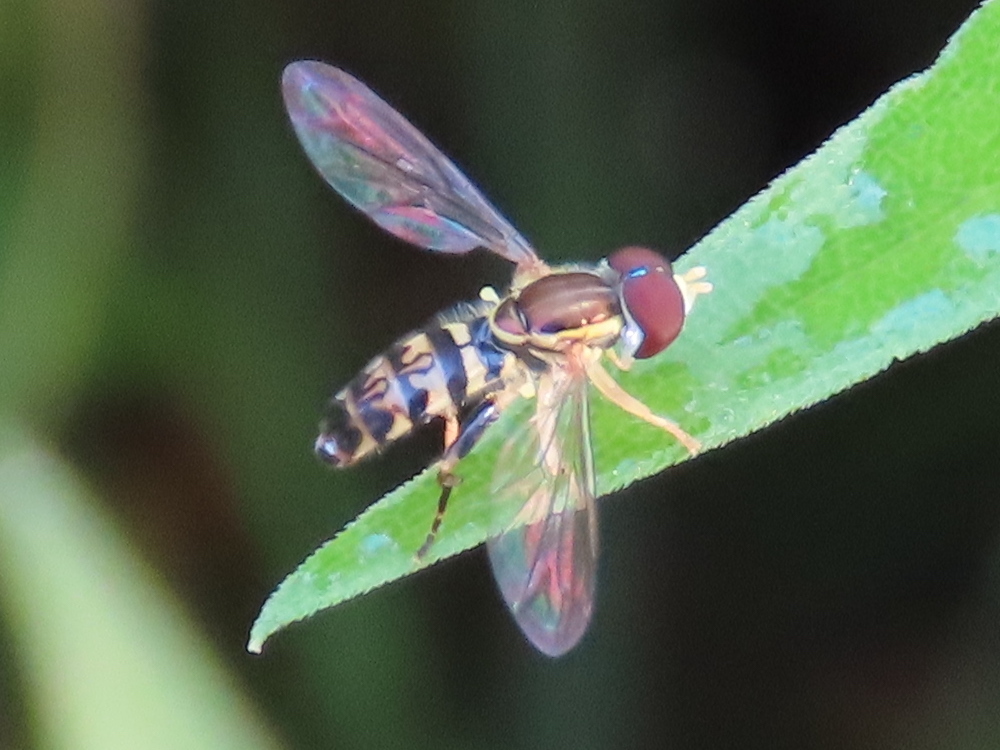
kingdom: Animalia
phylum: Arthropoda
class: Insecta
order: Diptera
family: Syrphidae
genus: Toxomerus
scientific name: Toxomerus geminatus
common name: Eastern calligrapher
